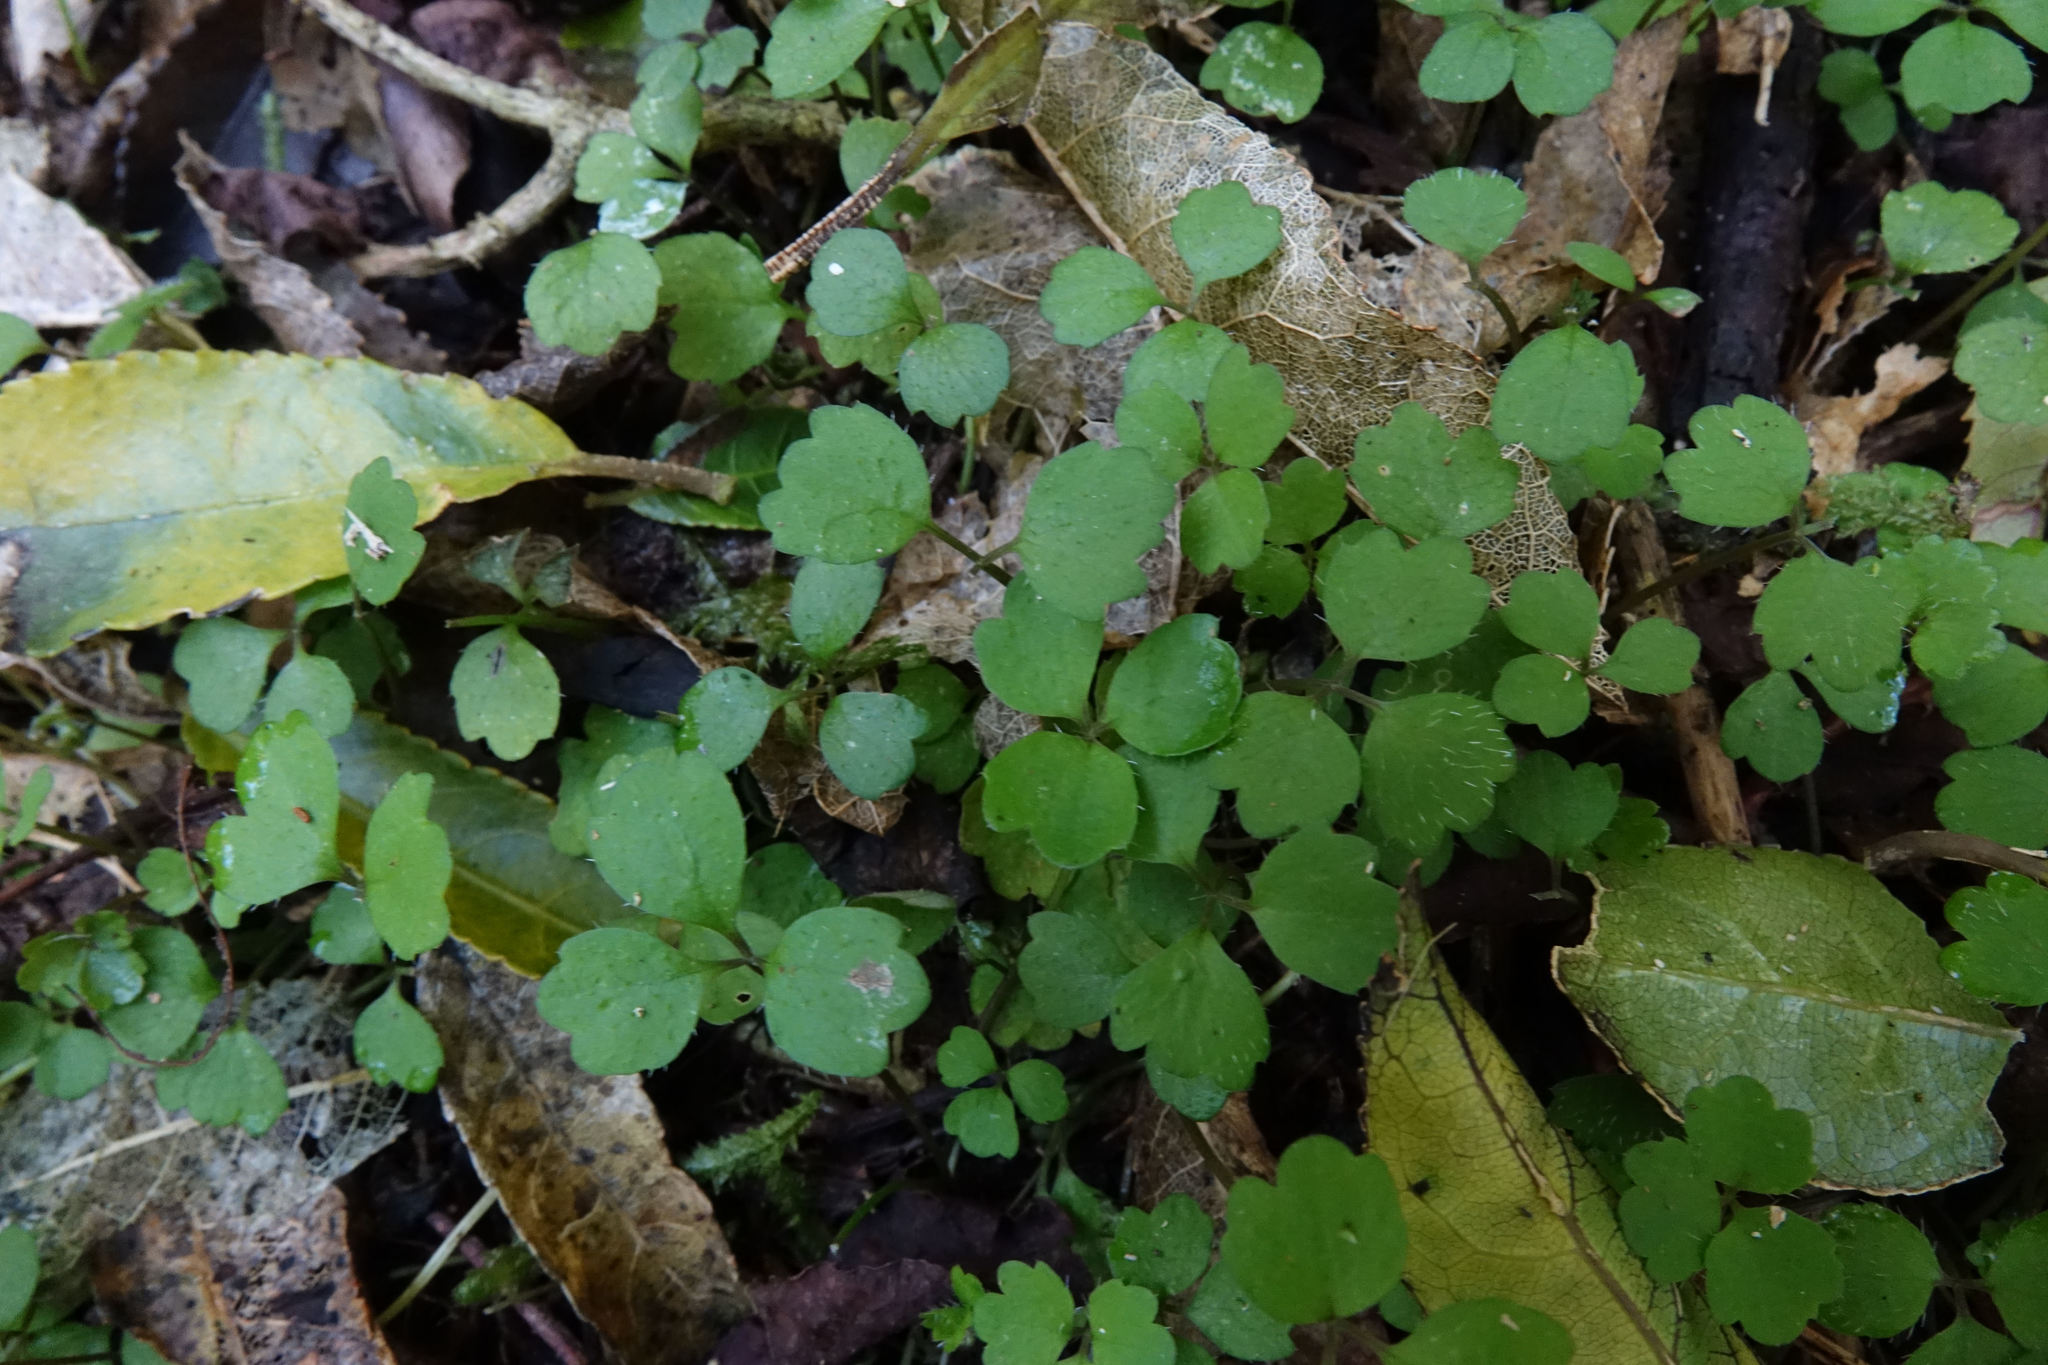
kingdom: Plantae
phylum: Tracheophyta
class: Magnoliopsida
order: Apiales
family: Apiaceae
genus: Azorella
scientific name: Azorella hookeri
